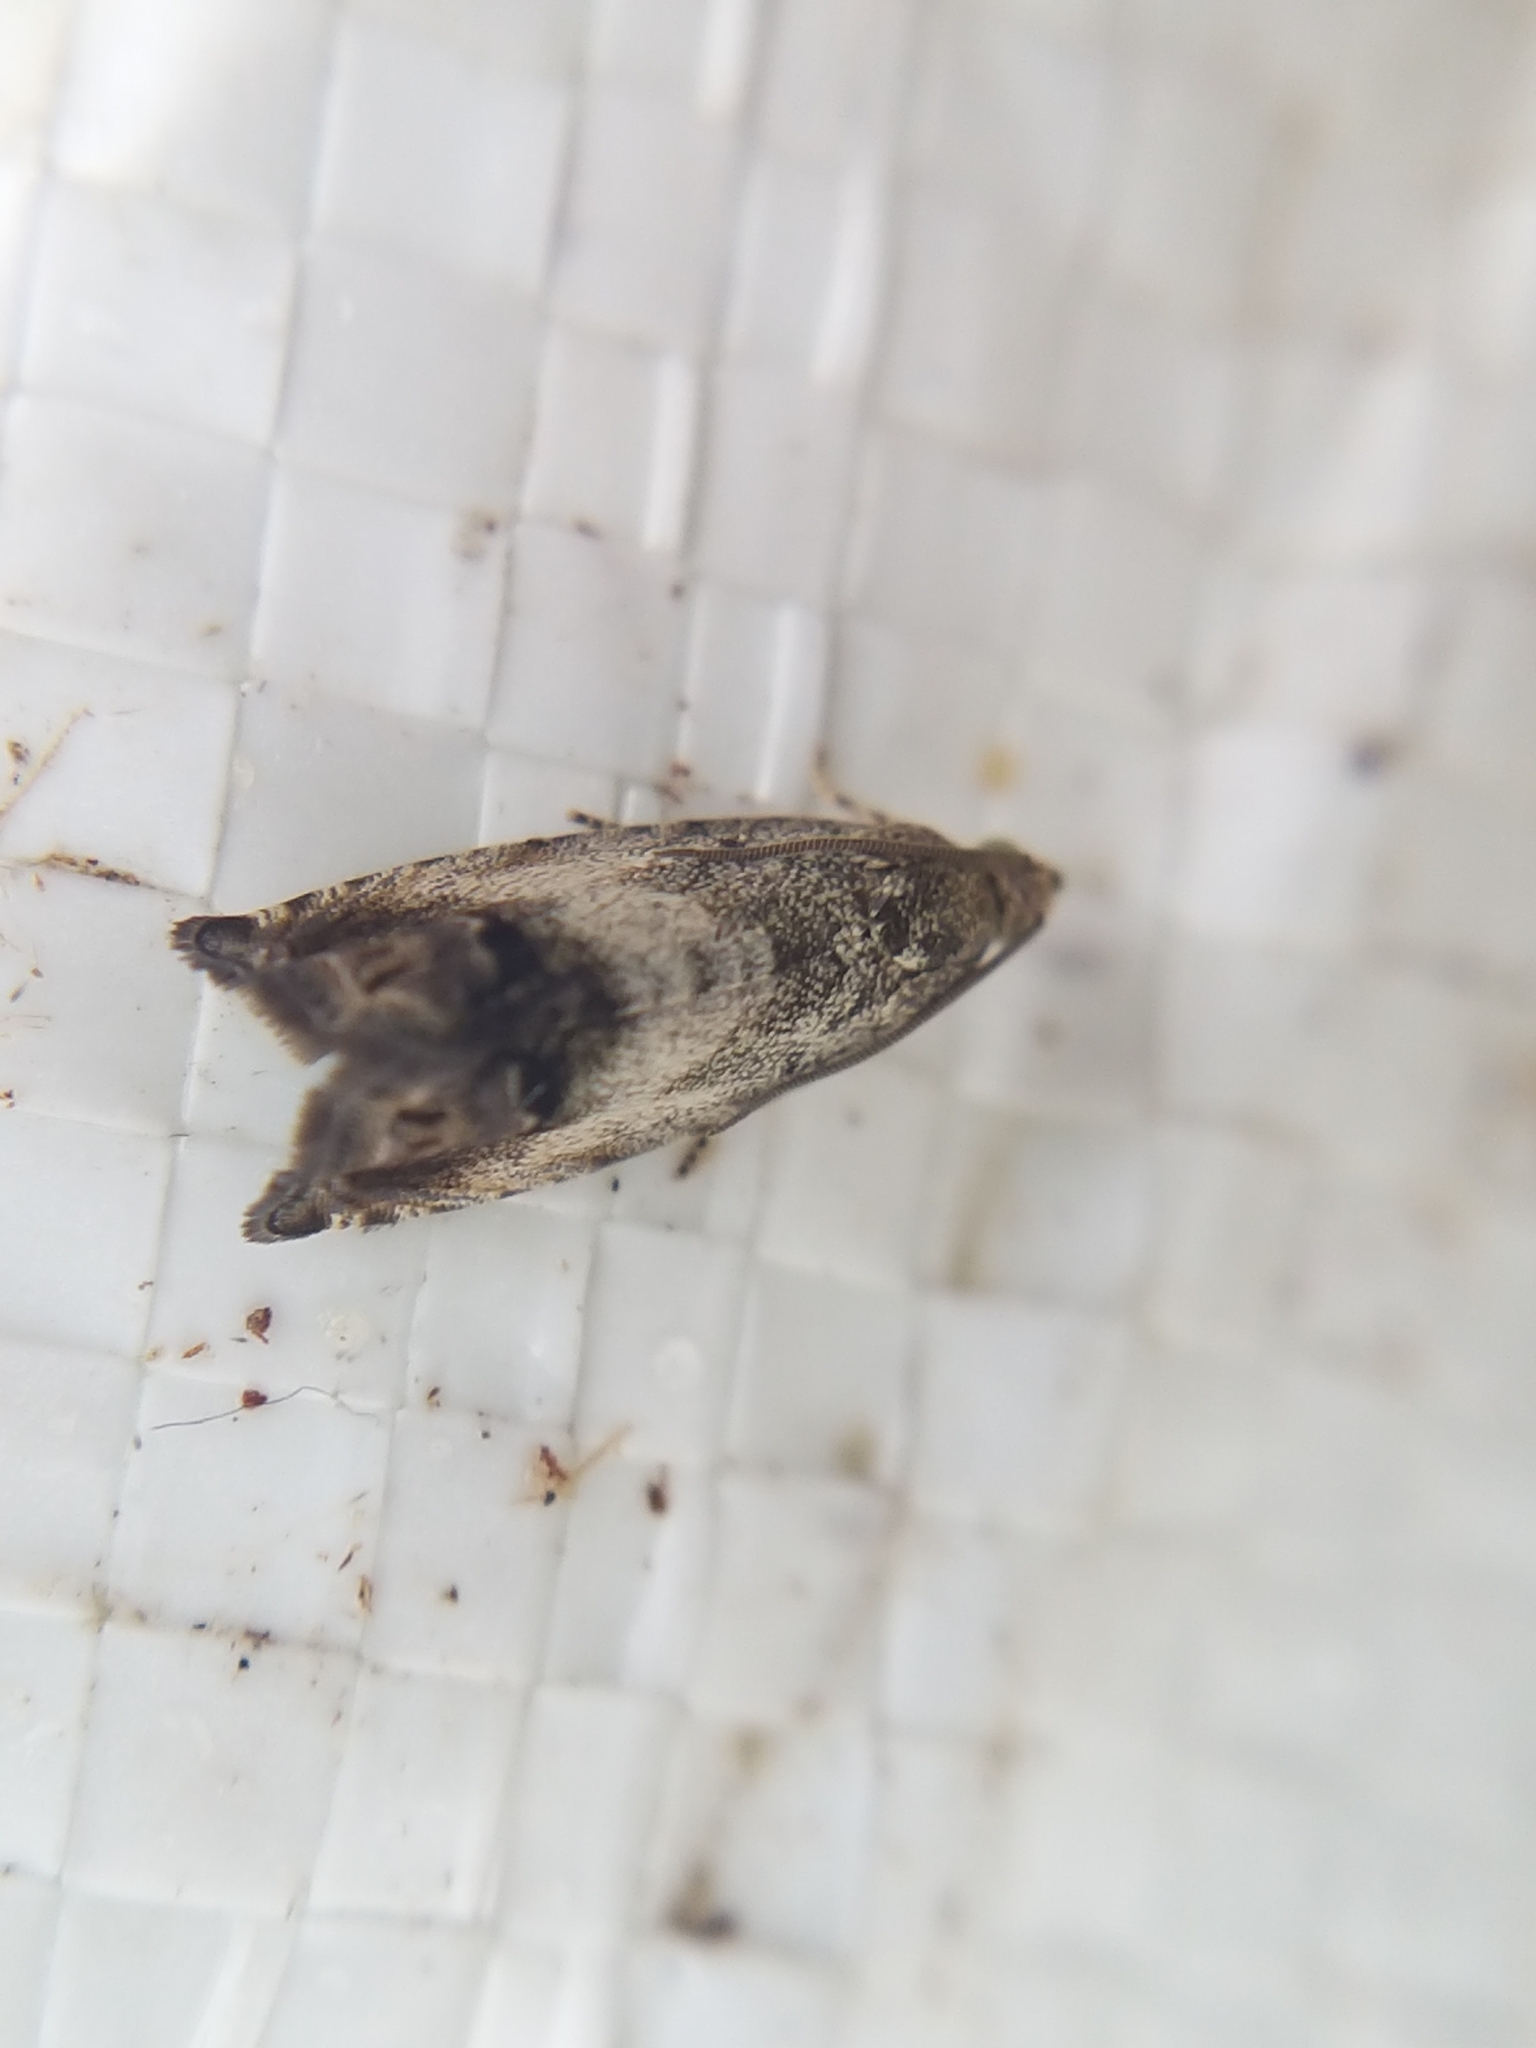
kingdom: Animalia
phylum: Arthropoda
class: Insecta
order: Lepidoptera
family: Tortricidae
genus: Cydia
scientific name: Cydia splendana
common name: De: kastanienwickler, eichenwickler es: oruga de la castaña fr: carpocapse des châtaignes it: cidia o tortrice tardiva delle castagne pt: bichado das castanhas gb: acorn moth, chestnut fruit tortrix
